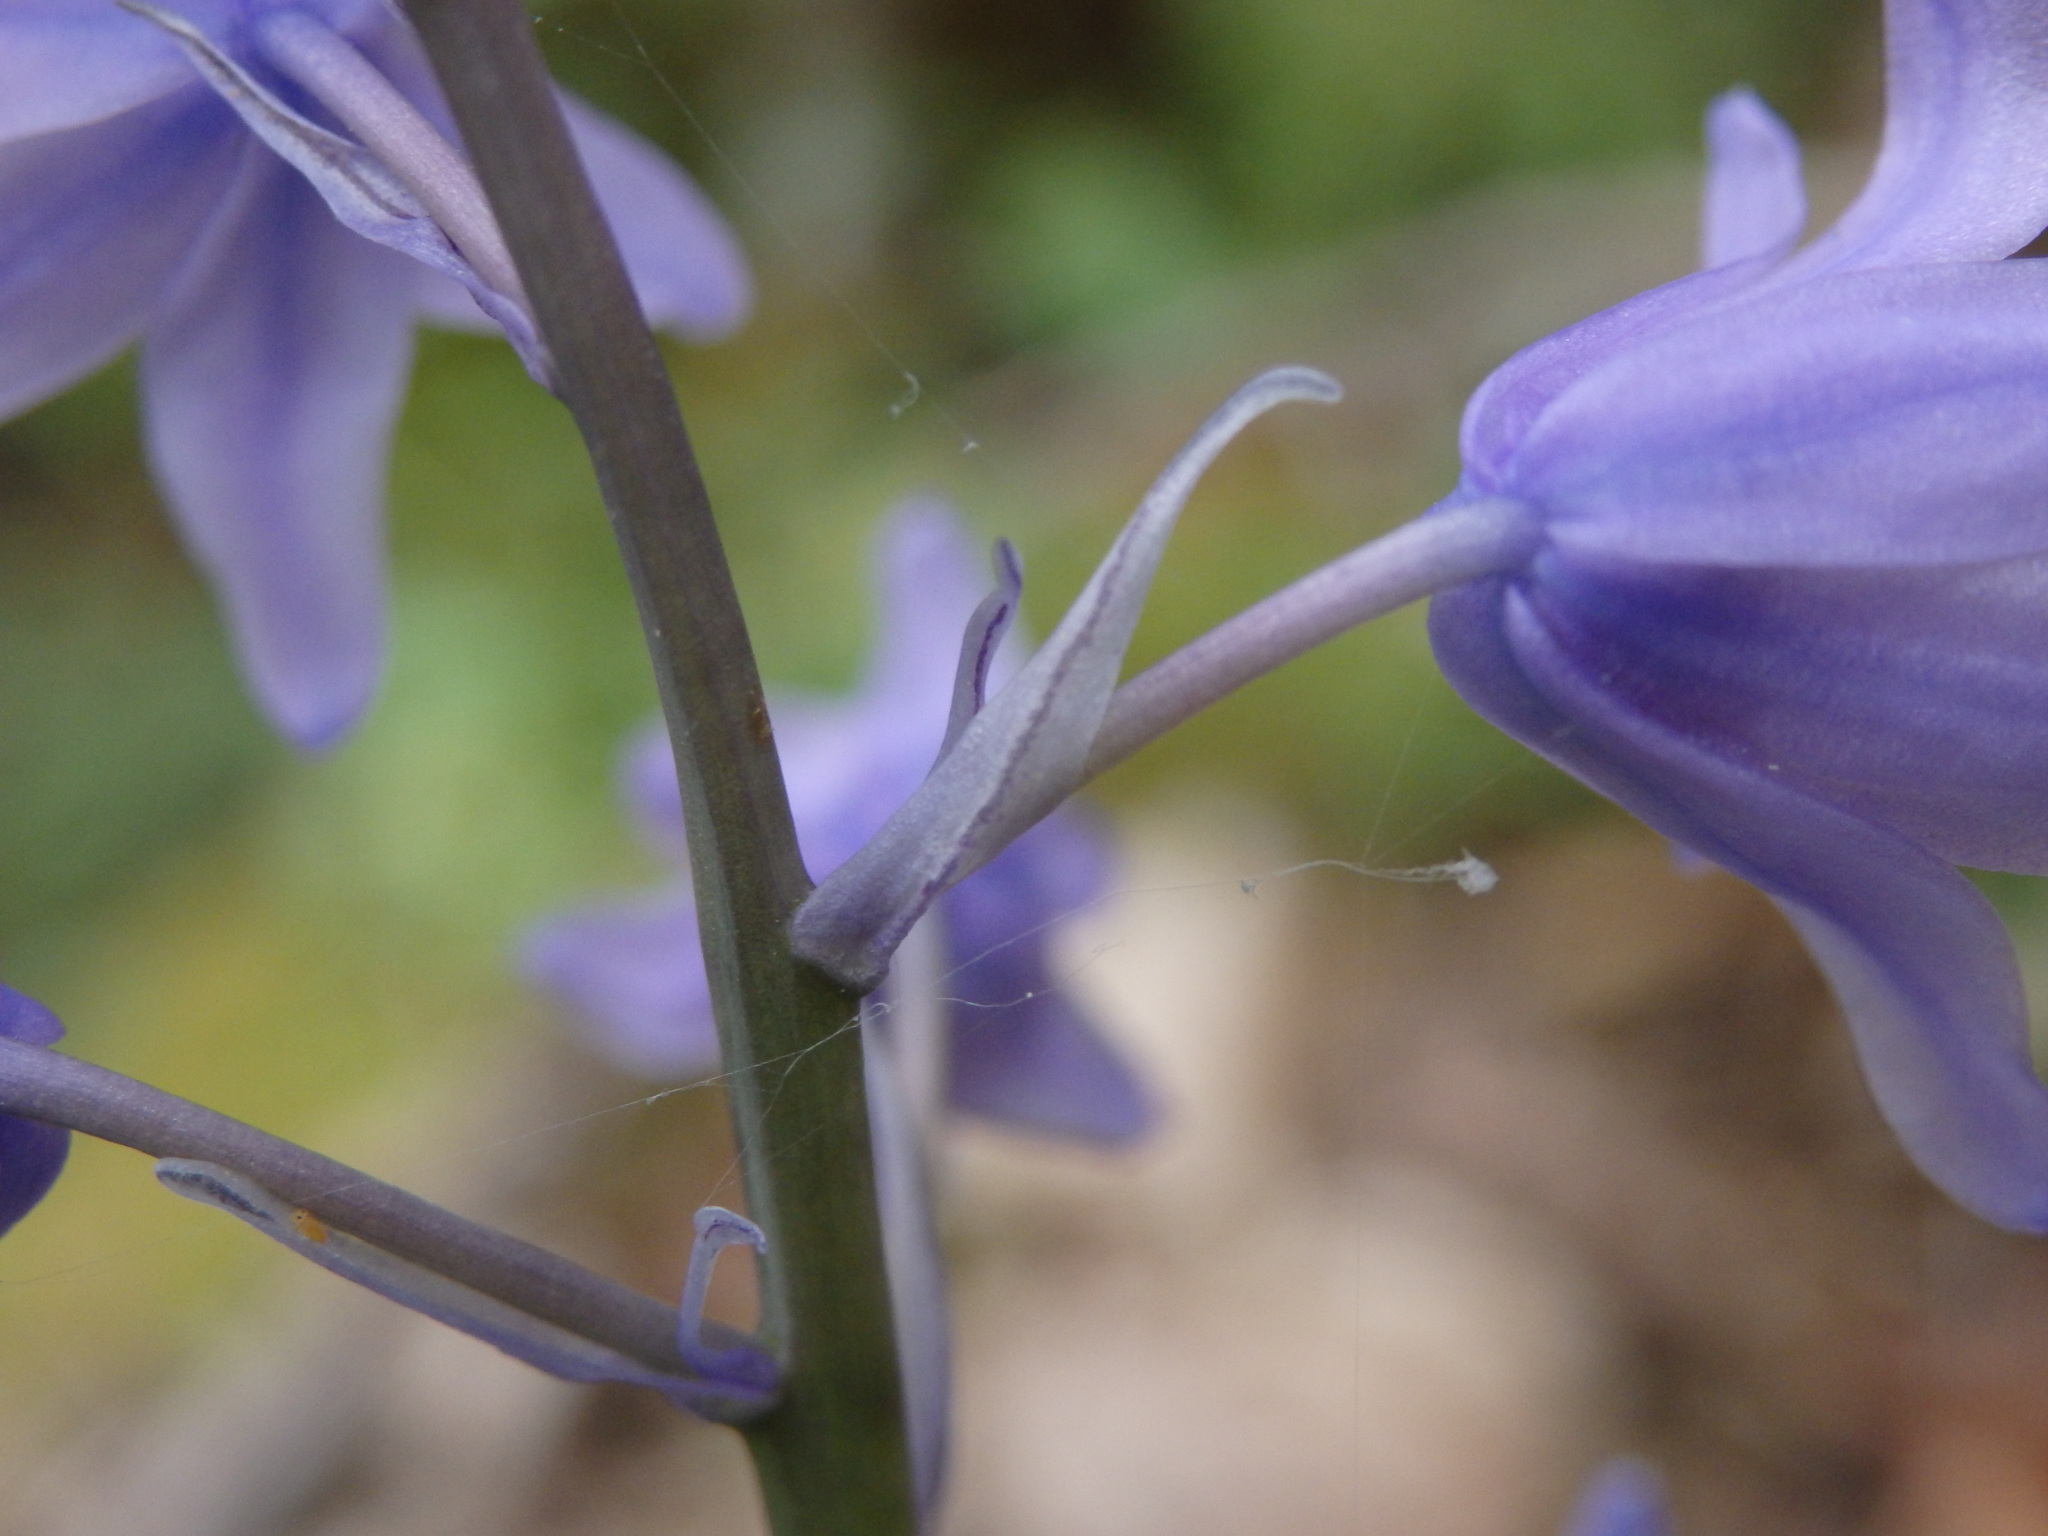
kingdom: Plantae
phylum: Tracheophyta
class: Liliopsida
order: Asparagales
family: Asparagaceae
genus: Hyacinthoides
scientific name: Hyacinthoides paivae
